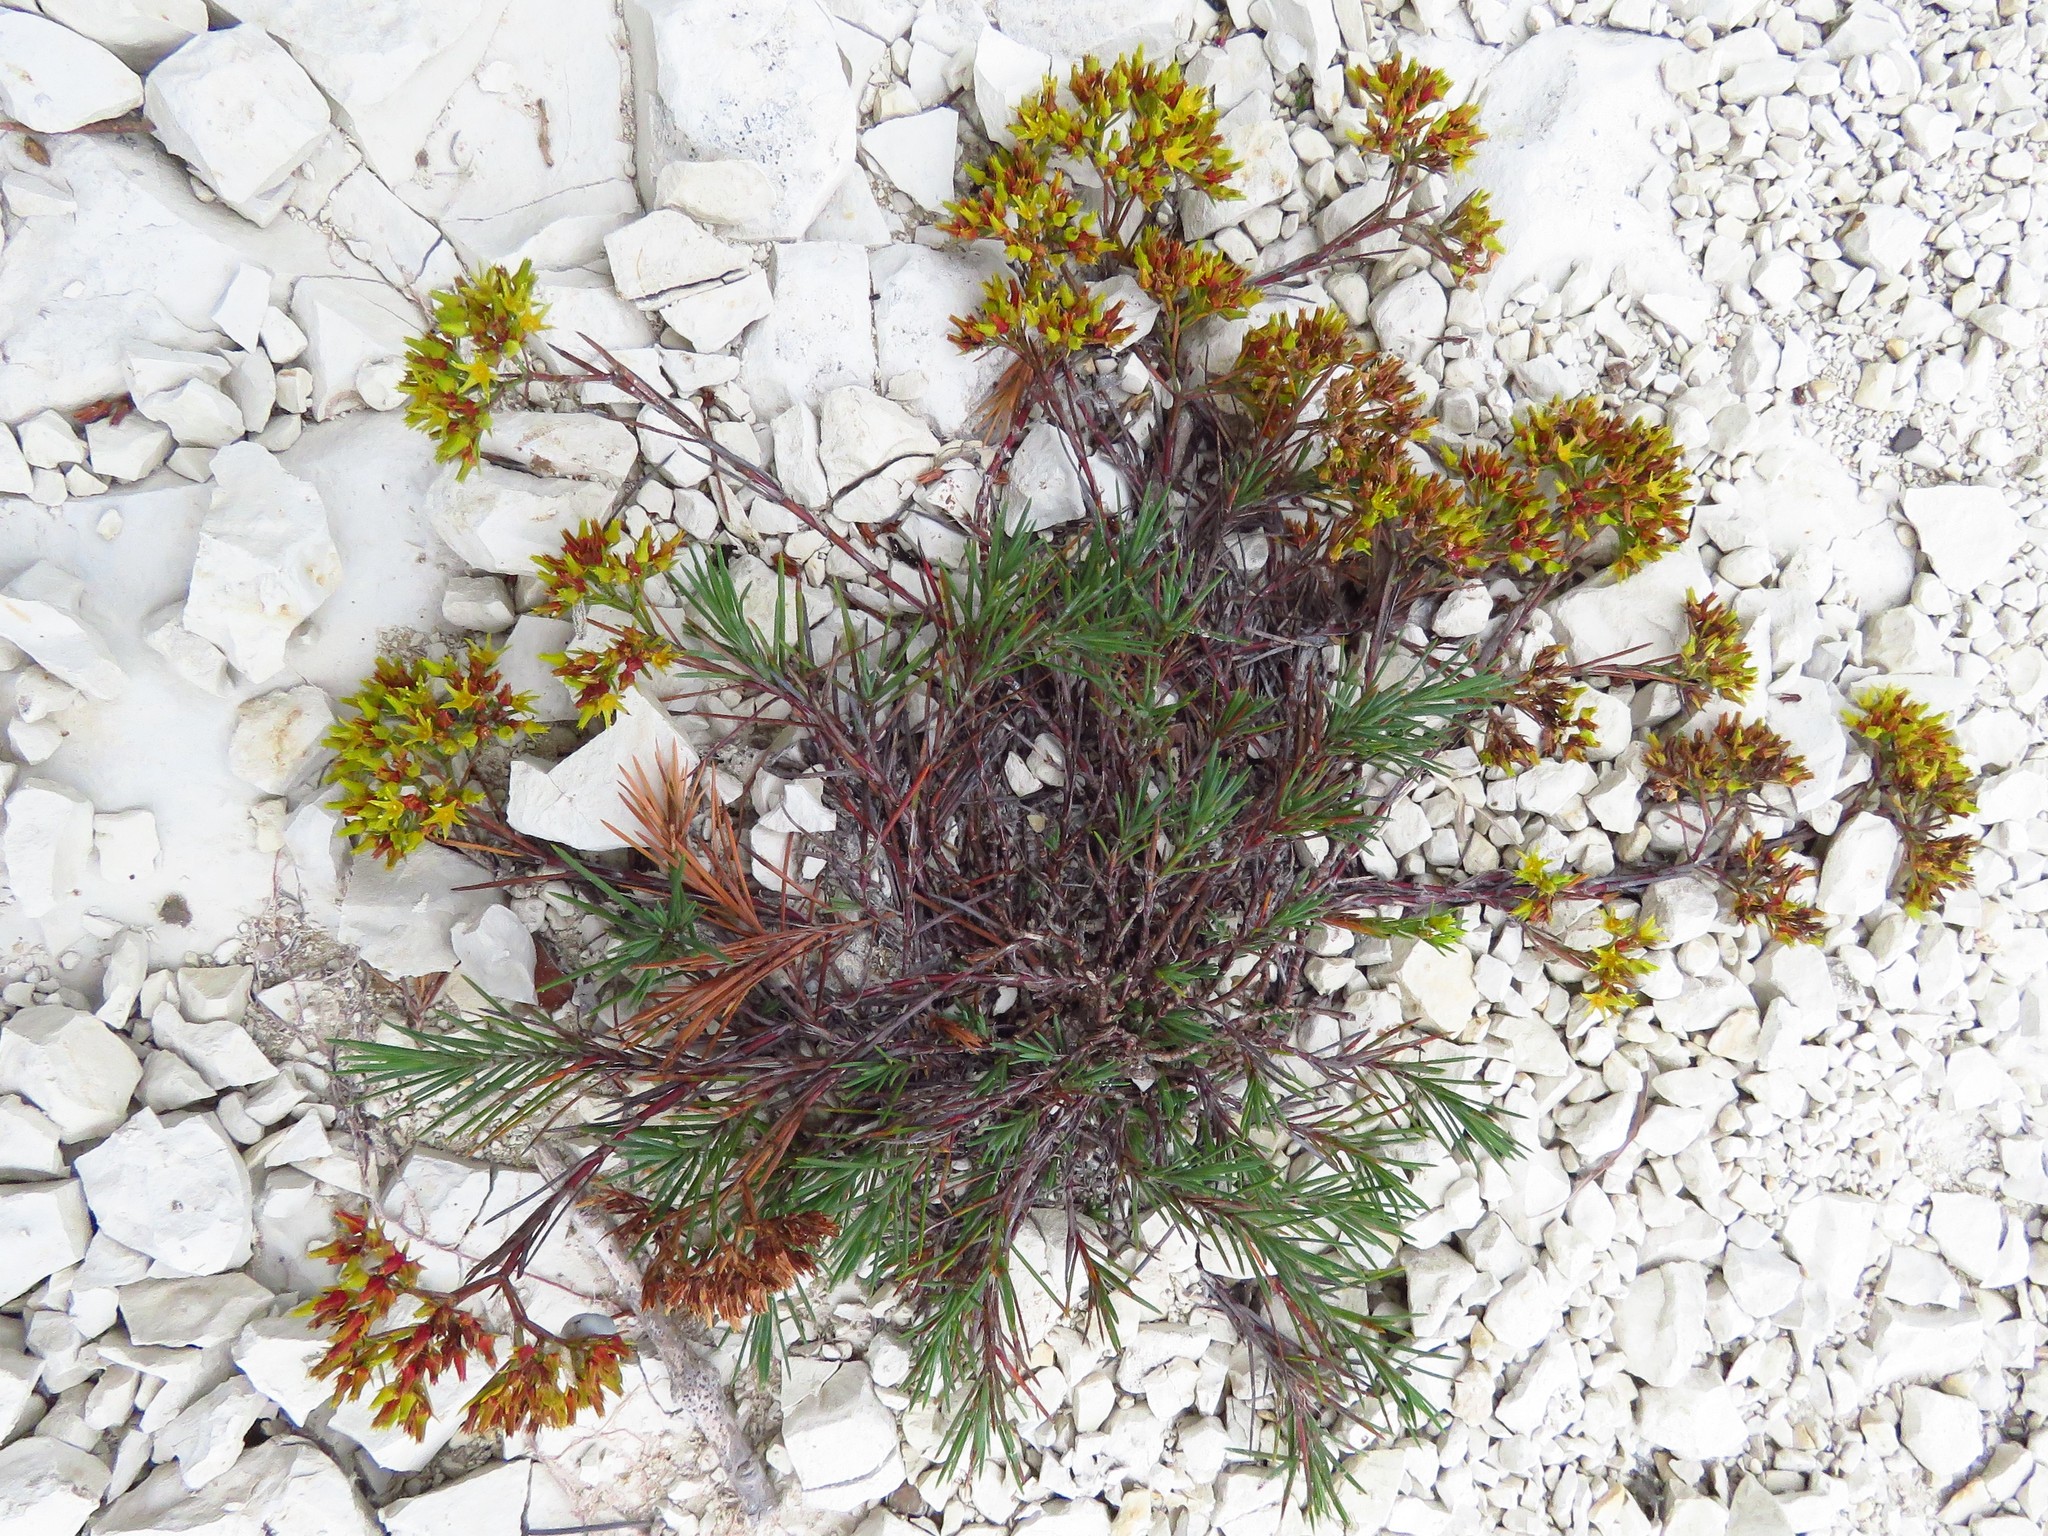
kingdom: Plantae
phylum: Tracheophyta
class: Magnoliopsida
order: Caryophyllales
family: Caryophyllaceae
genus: Paronychia
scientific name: Paronychia virginica
